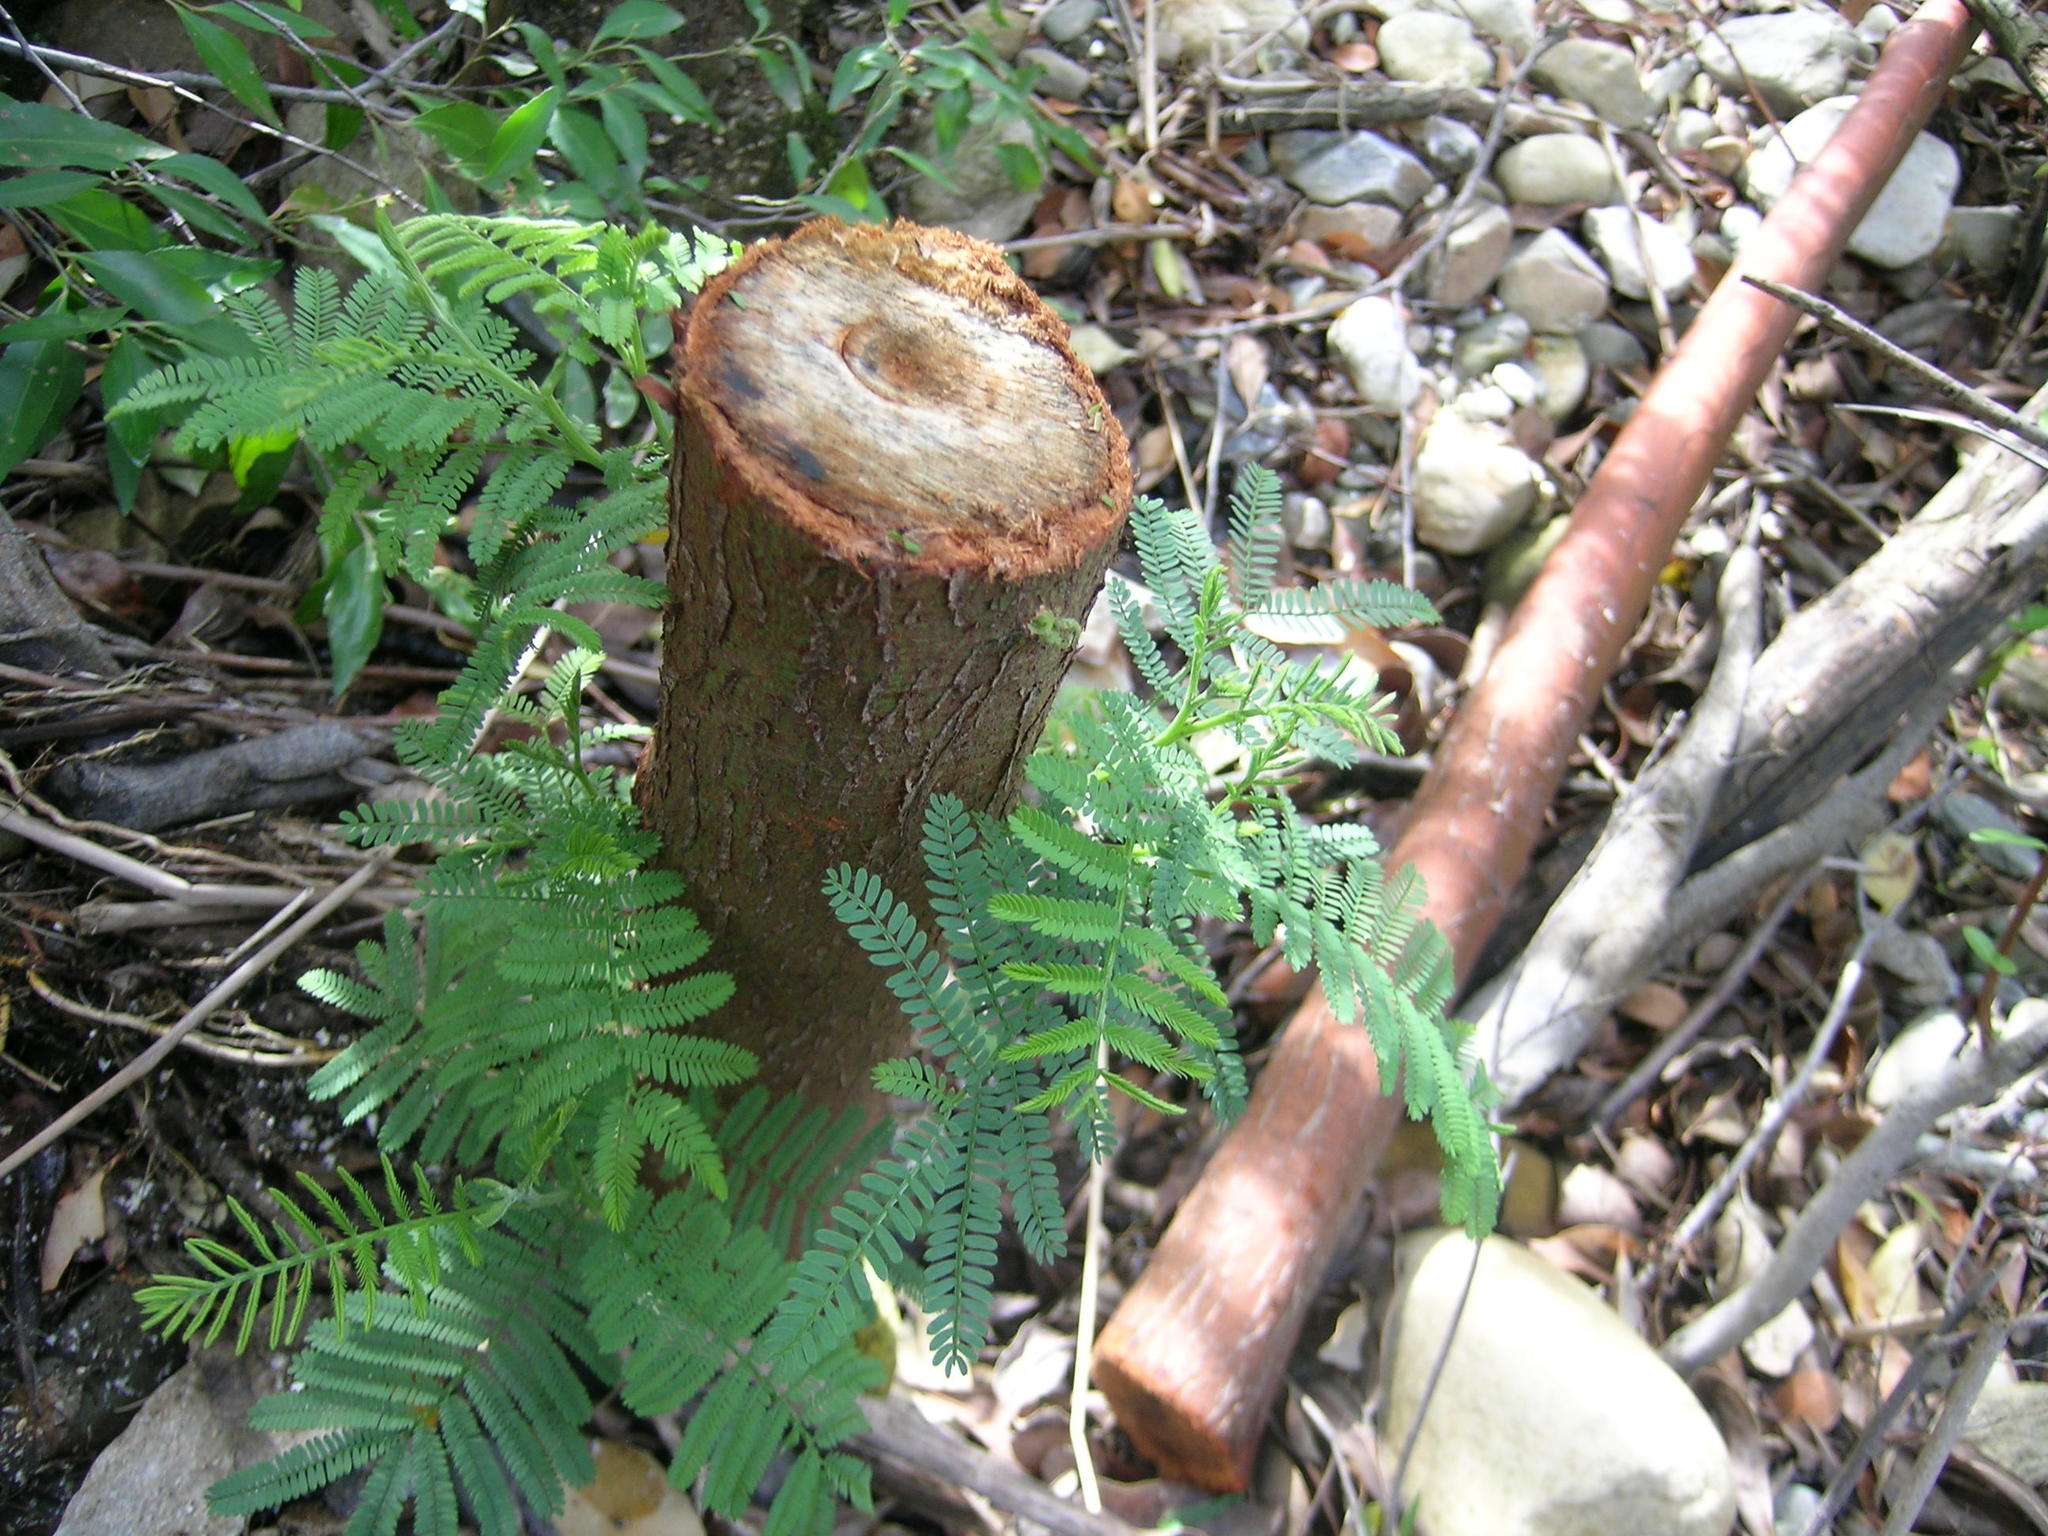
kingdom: Plantae
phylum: Tracheophyta
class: Magnoliopsida
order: Fabales
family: Fabaceae
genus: Acacia
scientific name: Acacia mearnsii
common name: Black wattle
